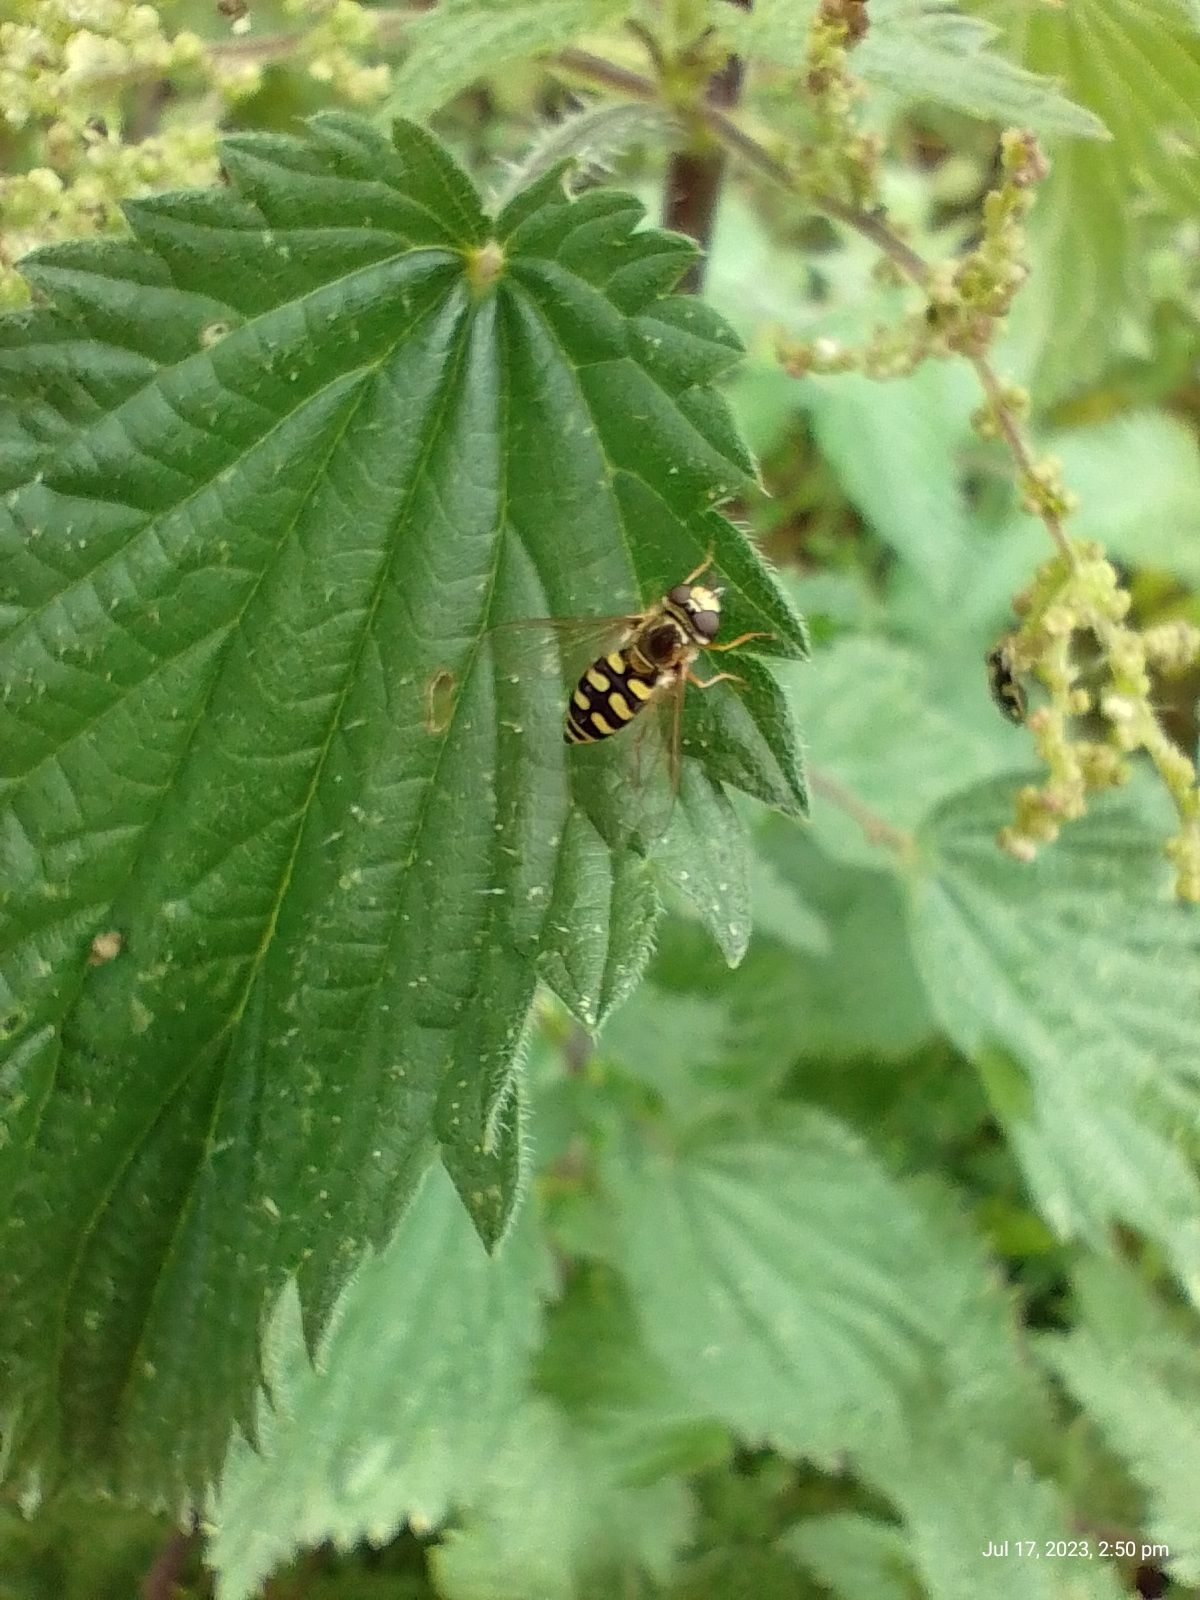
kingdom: Animalia
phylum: Arthropoda
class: Insecta
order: Diptera
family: Syrphidae
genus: Eupeodes
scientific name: Eupeodes corollae
